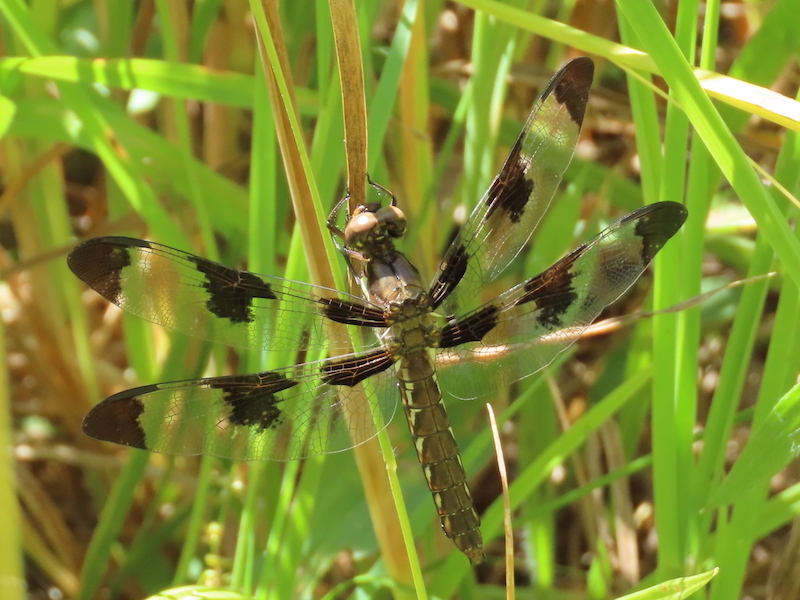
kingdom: Animalia
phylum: Arthropoda
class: Insecta
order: Odonata
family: Libellulidae
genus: Plathemis
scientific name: Plathemis lydia
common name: Common whitetail
